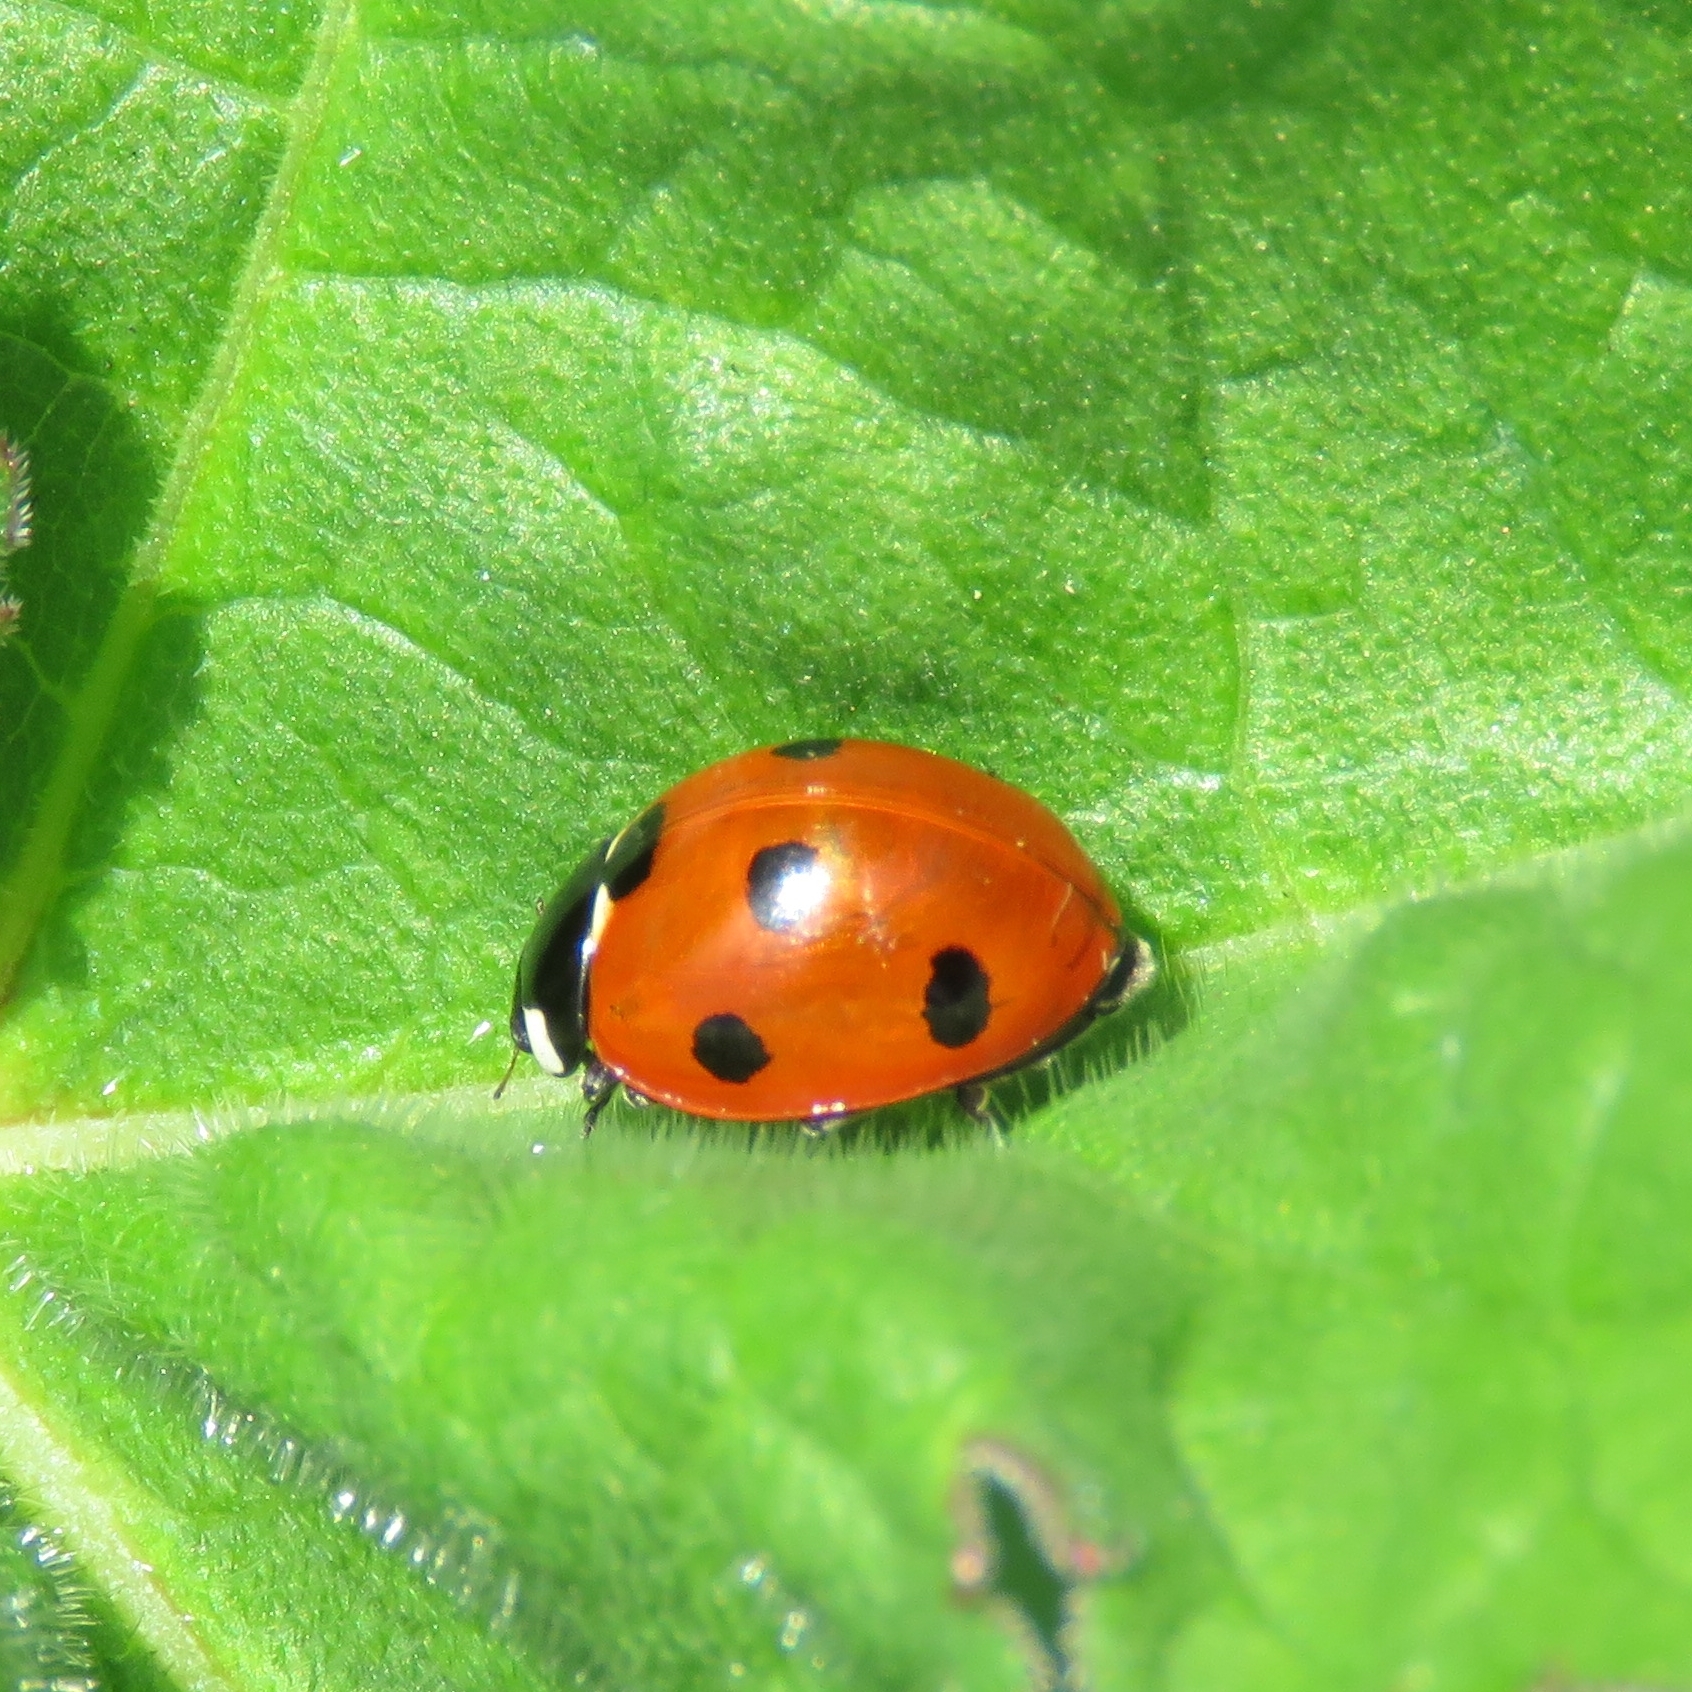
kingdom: Animalia
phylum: Arthropoda
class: Insecta
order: Coleoptera
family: Coccinellidae
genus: Coccinella
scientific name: Coccinella septempunctata
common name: Sevenspotted lady beetle
